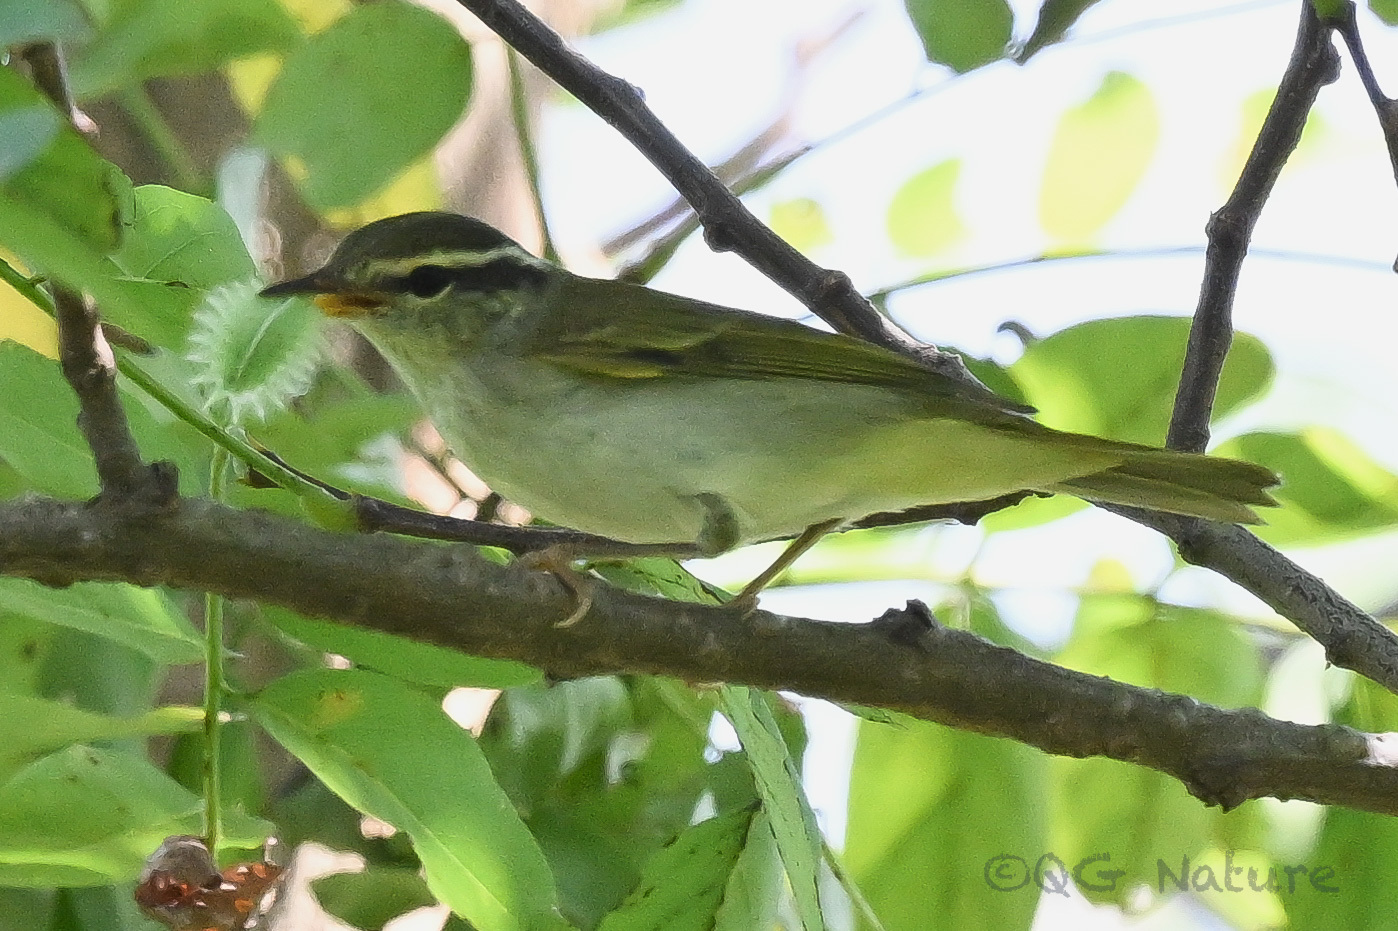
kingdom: Animalia
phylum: Chordata
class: Aves
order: Passeriformes
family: Phylloscopidae
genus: Phylloscopus
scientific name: Phylloscopus coronatus
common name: Eastern crowned warbler
